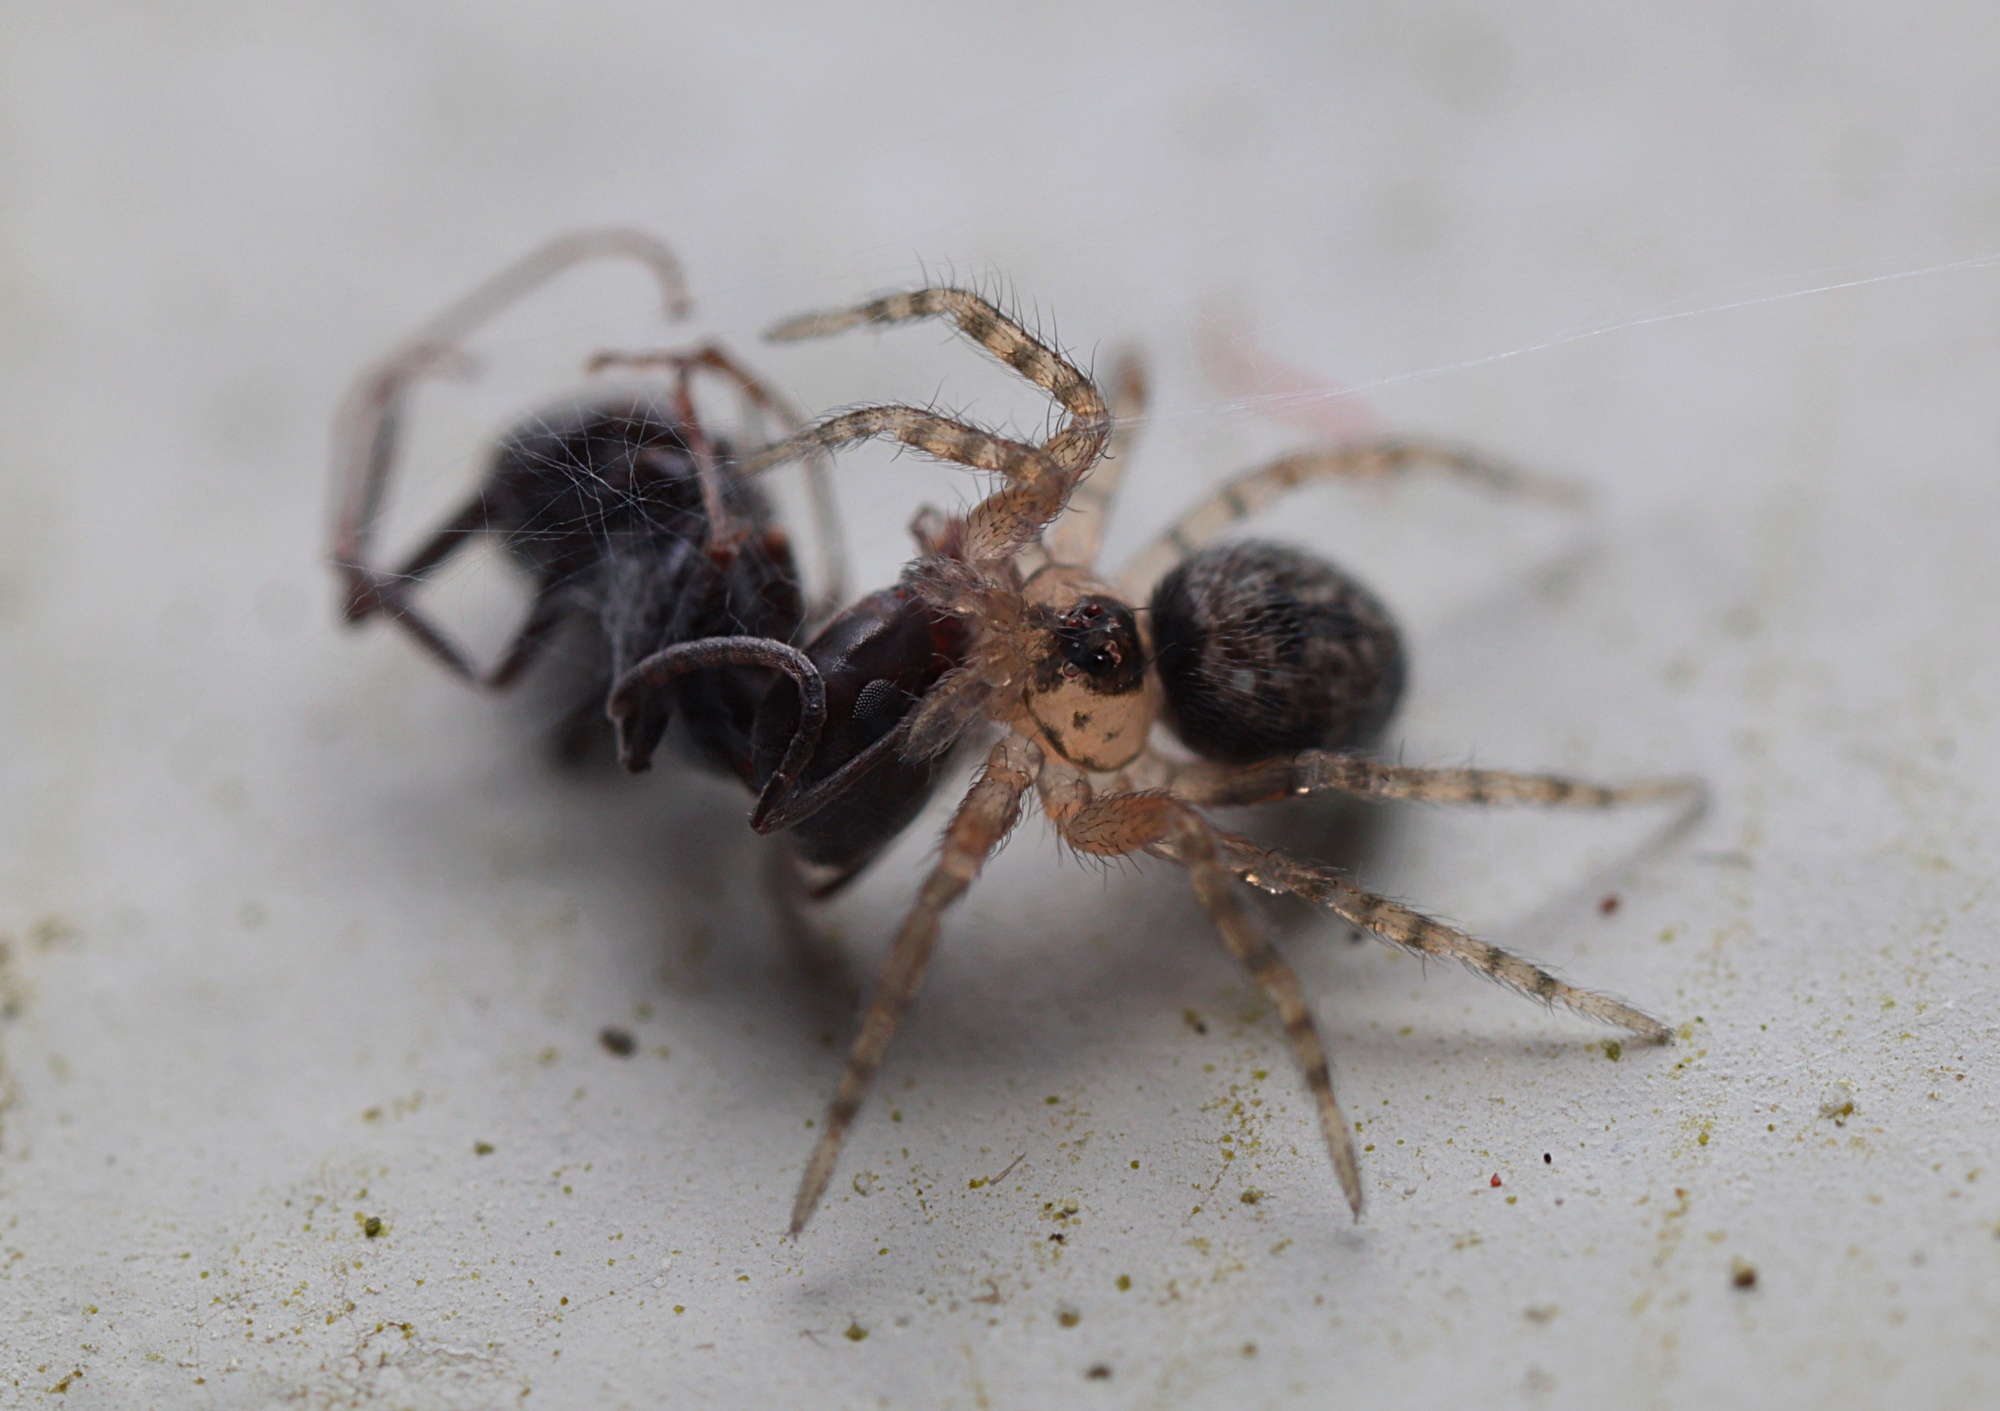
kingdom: Animalia
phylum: Arthropoda
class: Arachnida
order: Araneae
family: Oecobiidae
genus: Oecobius
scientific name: Oecobius navus
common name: Flatmesh weaver
